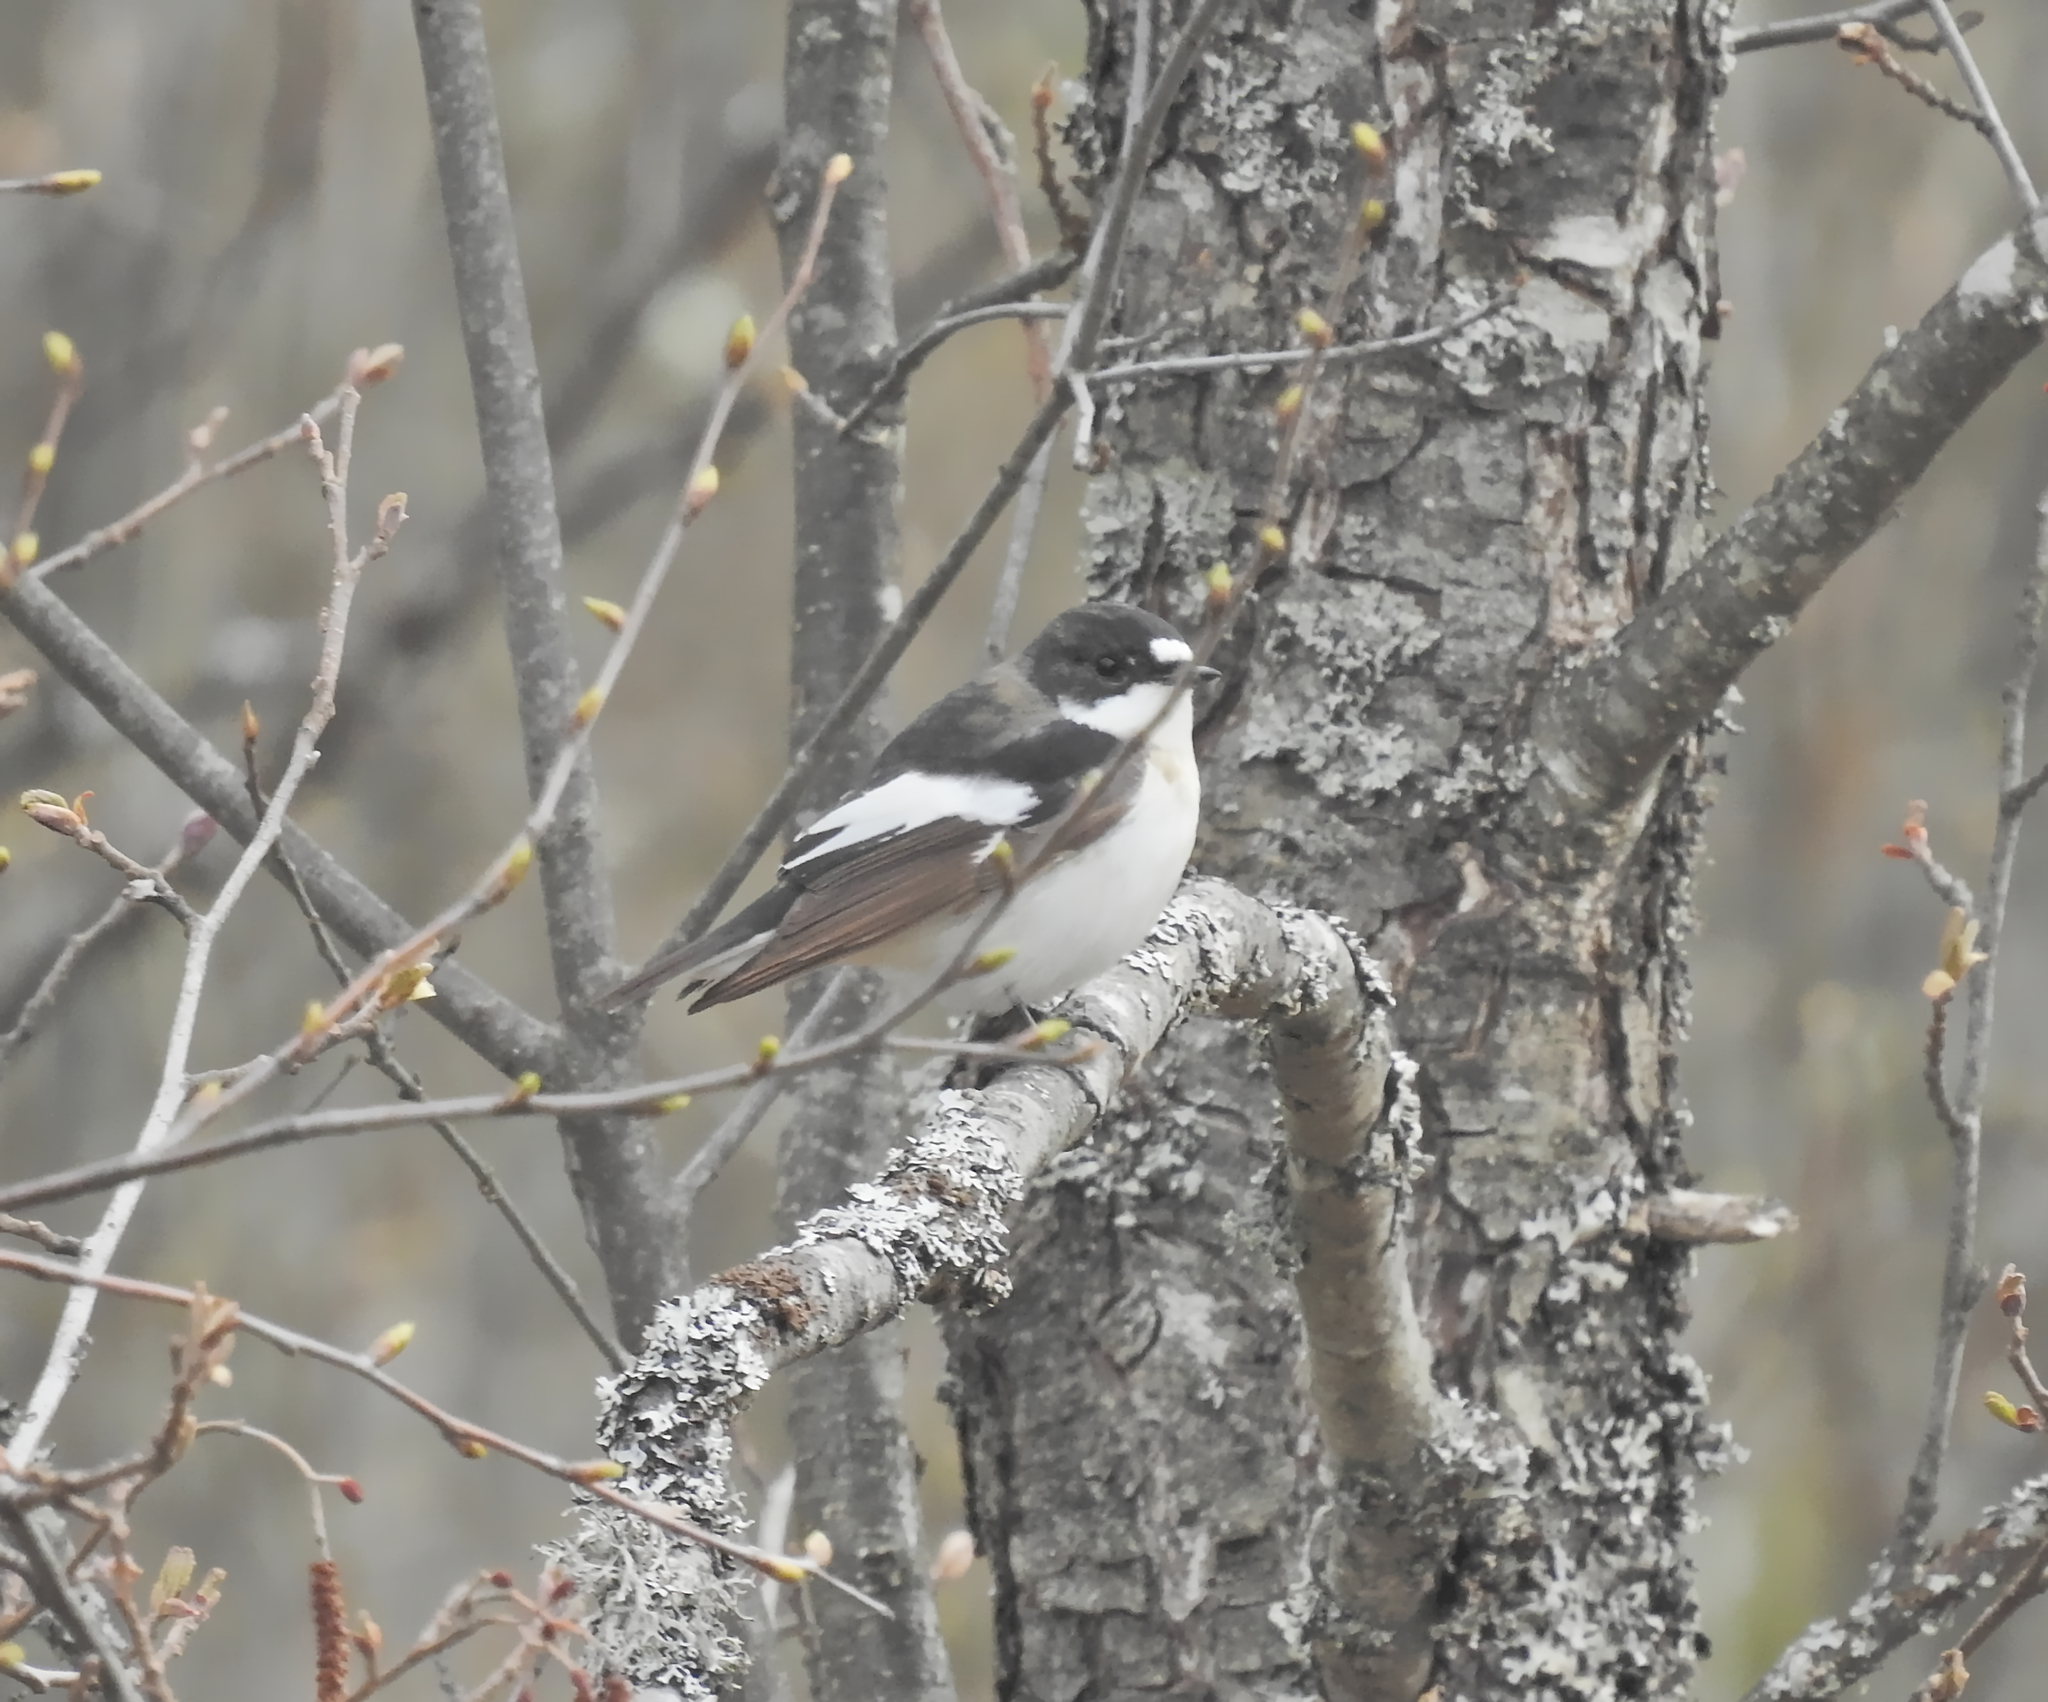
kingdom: Animalia
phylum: Chordata
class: Aves
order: Passeriformes
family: Muscicapidae
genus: Ficedula
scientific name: Ficedula hypoleuca
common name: European pied flycatcher
